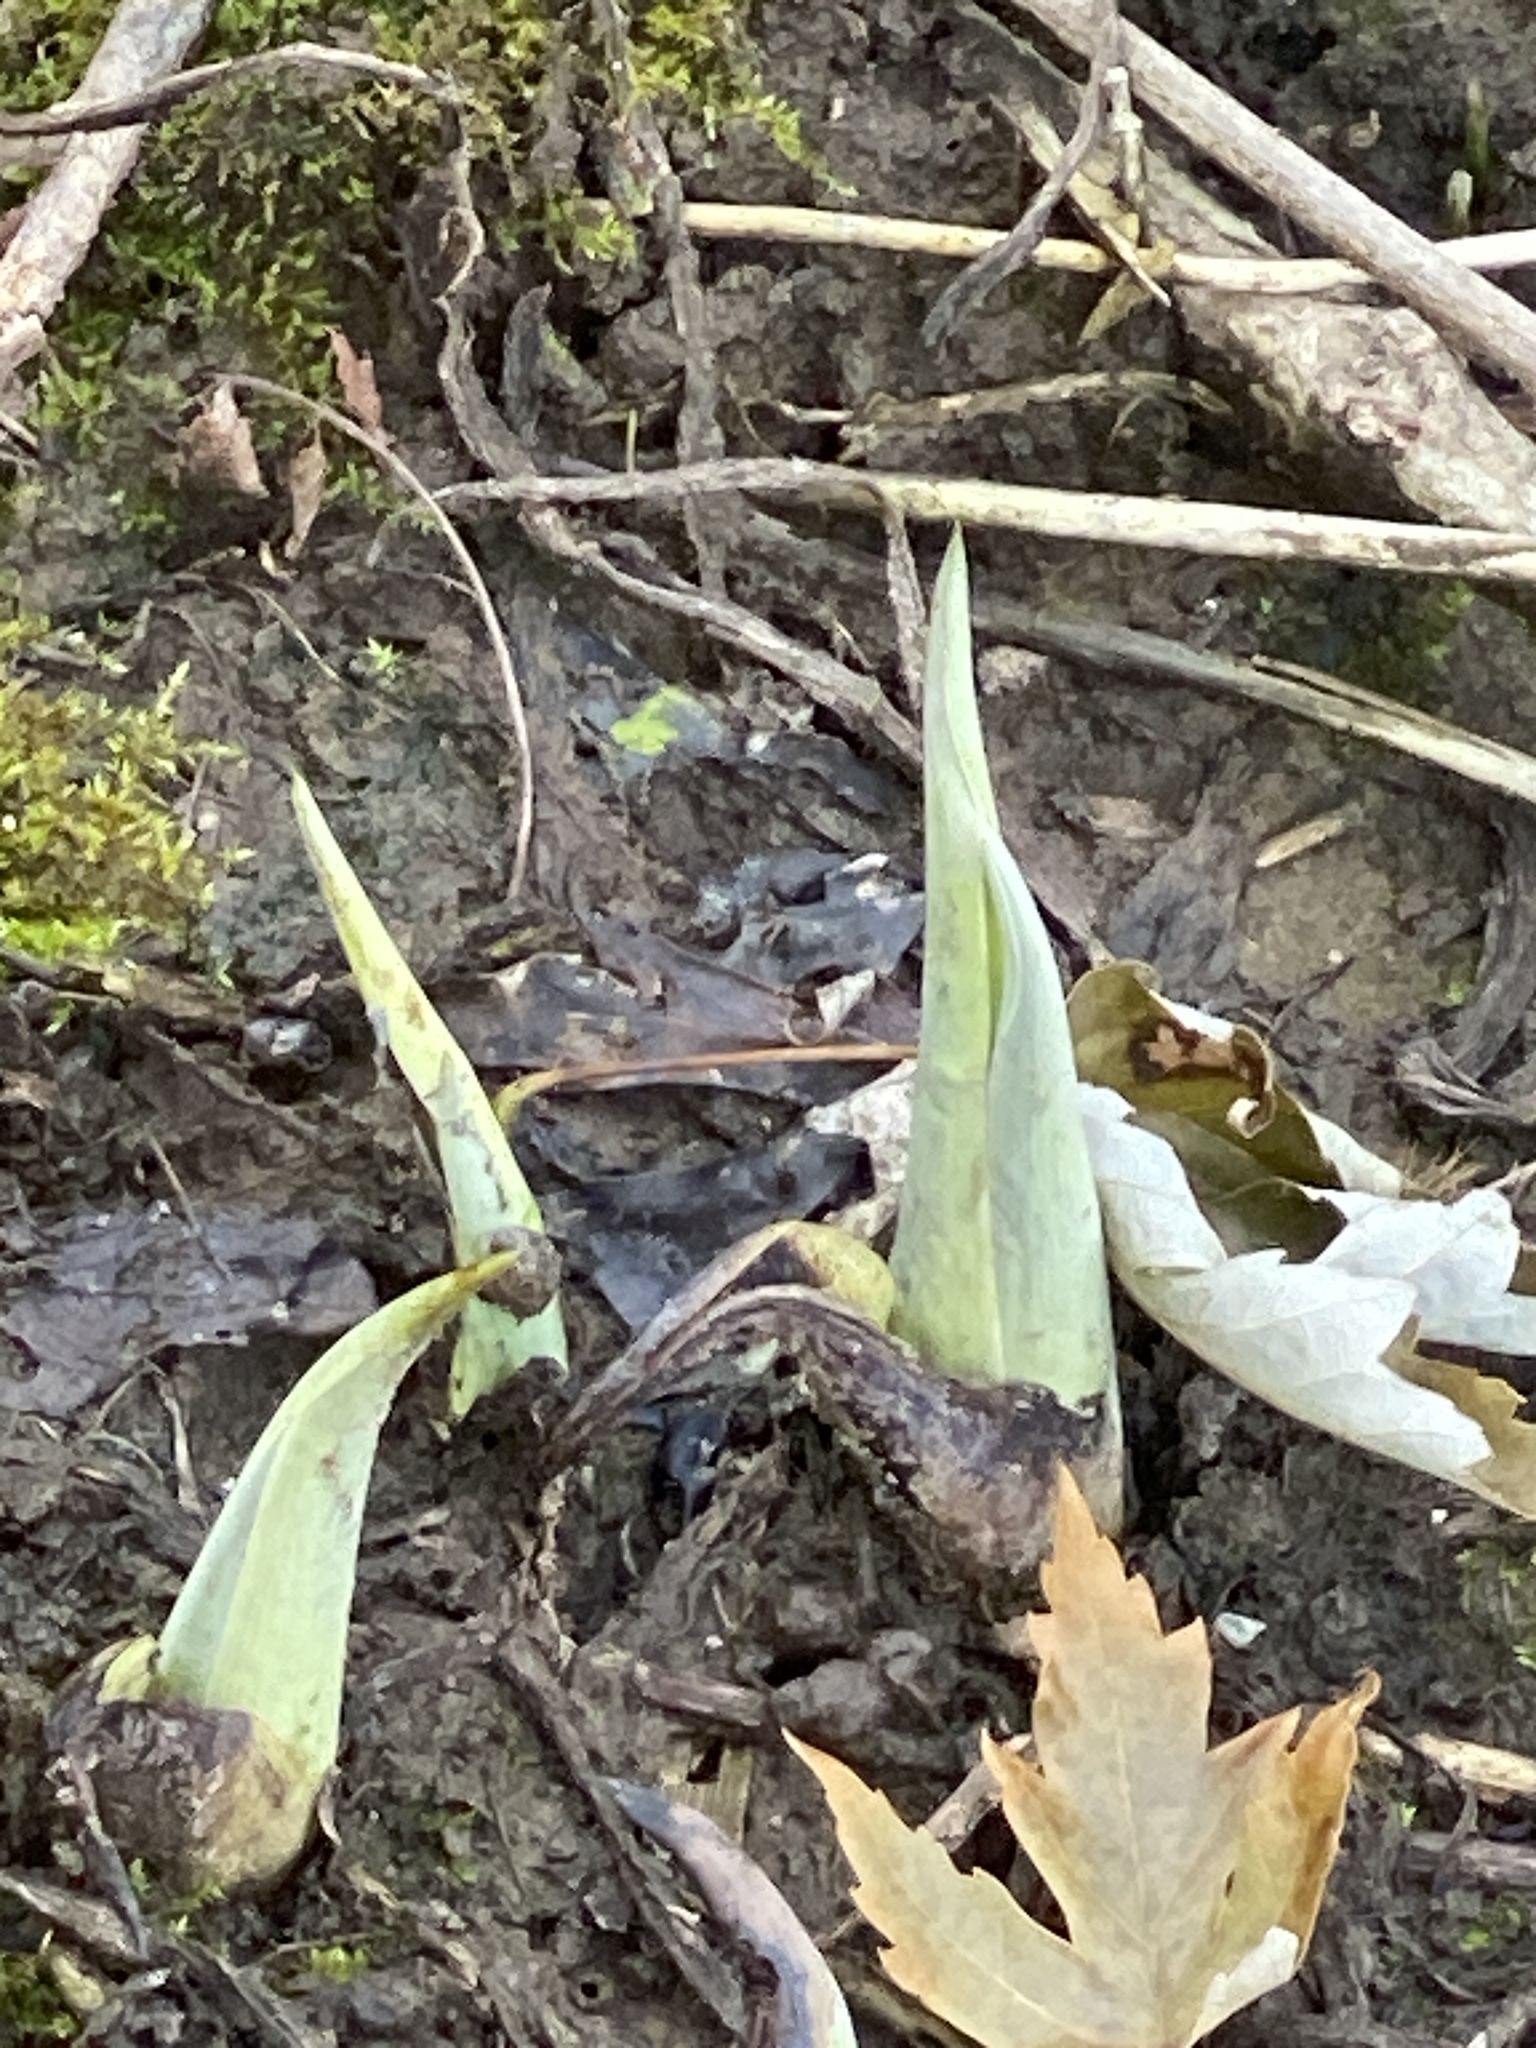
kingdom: Plantae
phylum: Tracheophyta
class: Liliopsida
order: Alismatales
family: Araceae
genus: Symplocarpus
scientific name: Symplocarpus foetidus
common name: Eastern skunk cabbage
